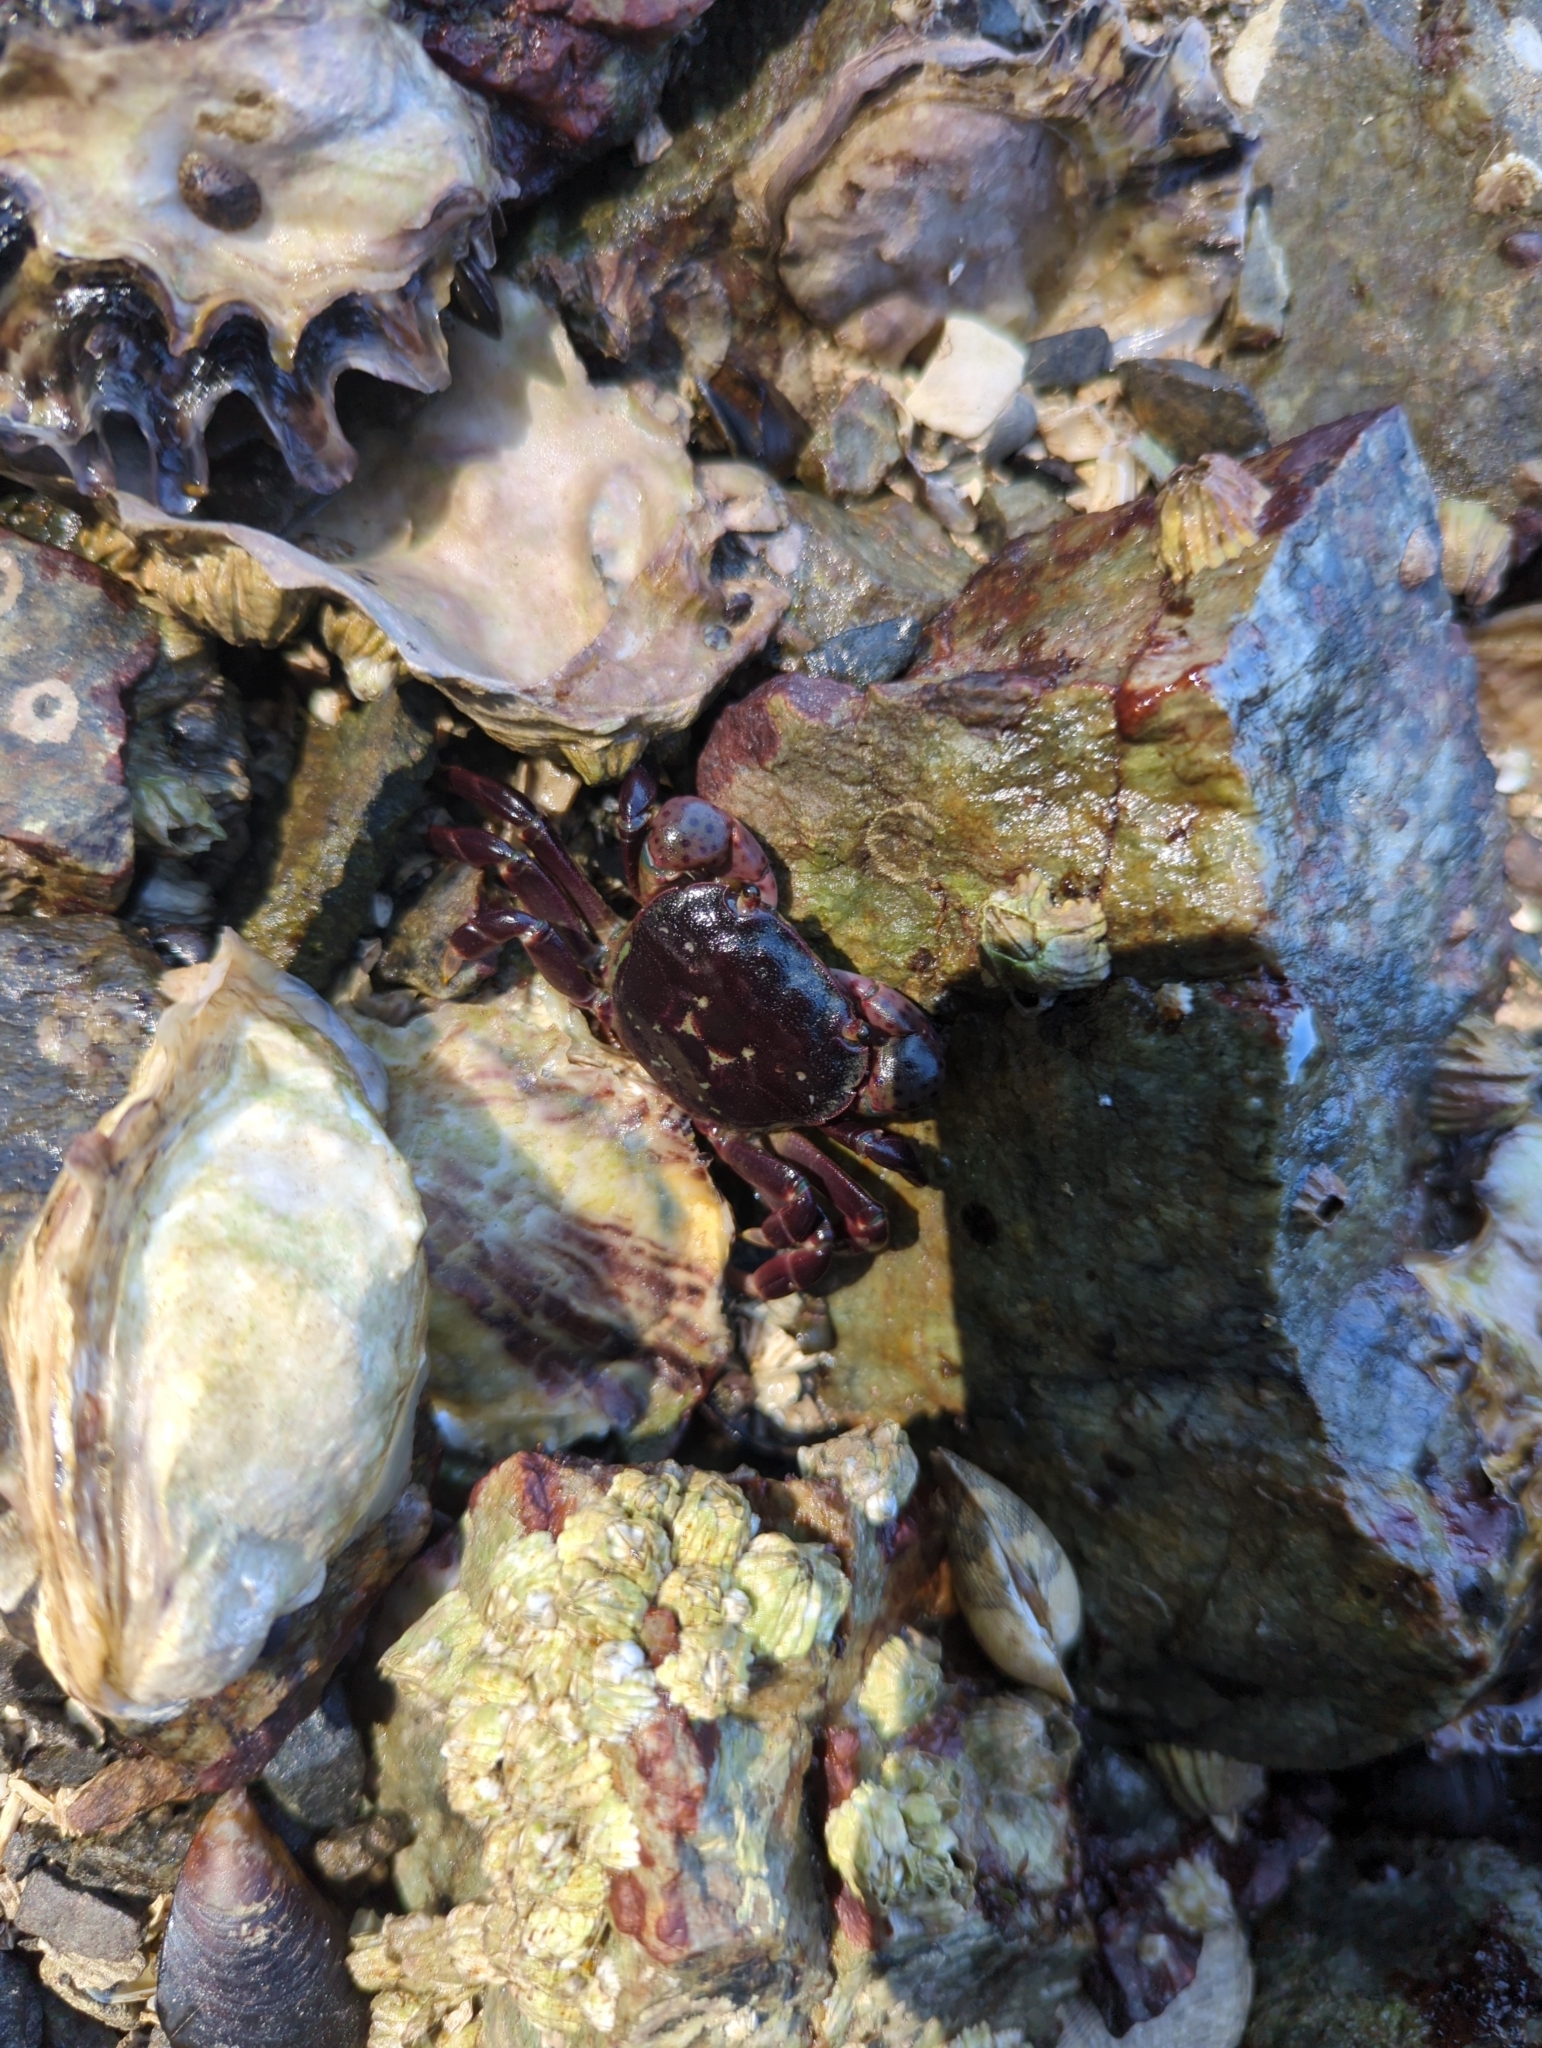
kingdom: Animalia
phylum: Arthropoda
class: Malacostraca
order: Decapoda
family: Varunidae
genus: Hemigrapsus
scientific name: Hemigrapsus nudus
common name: Purple shore crab
